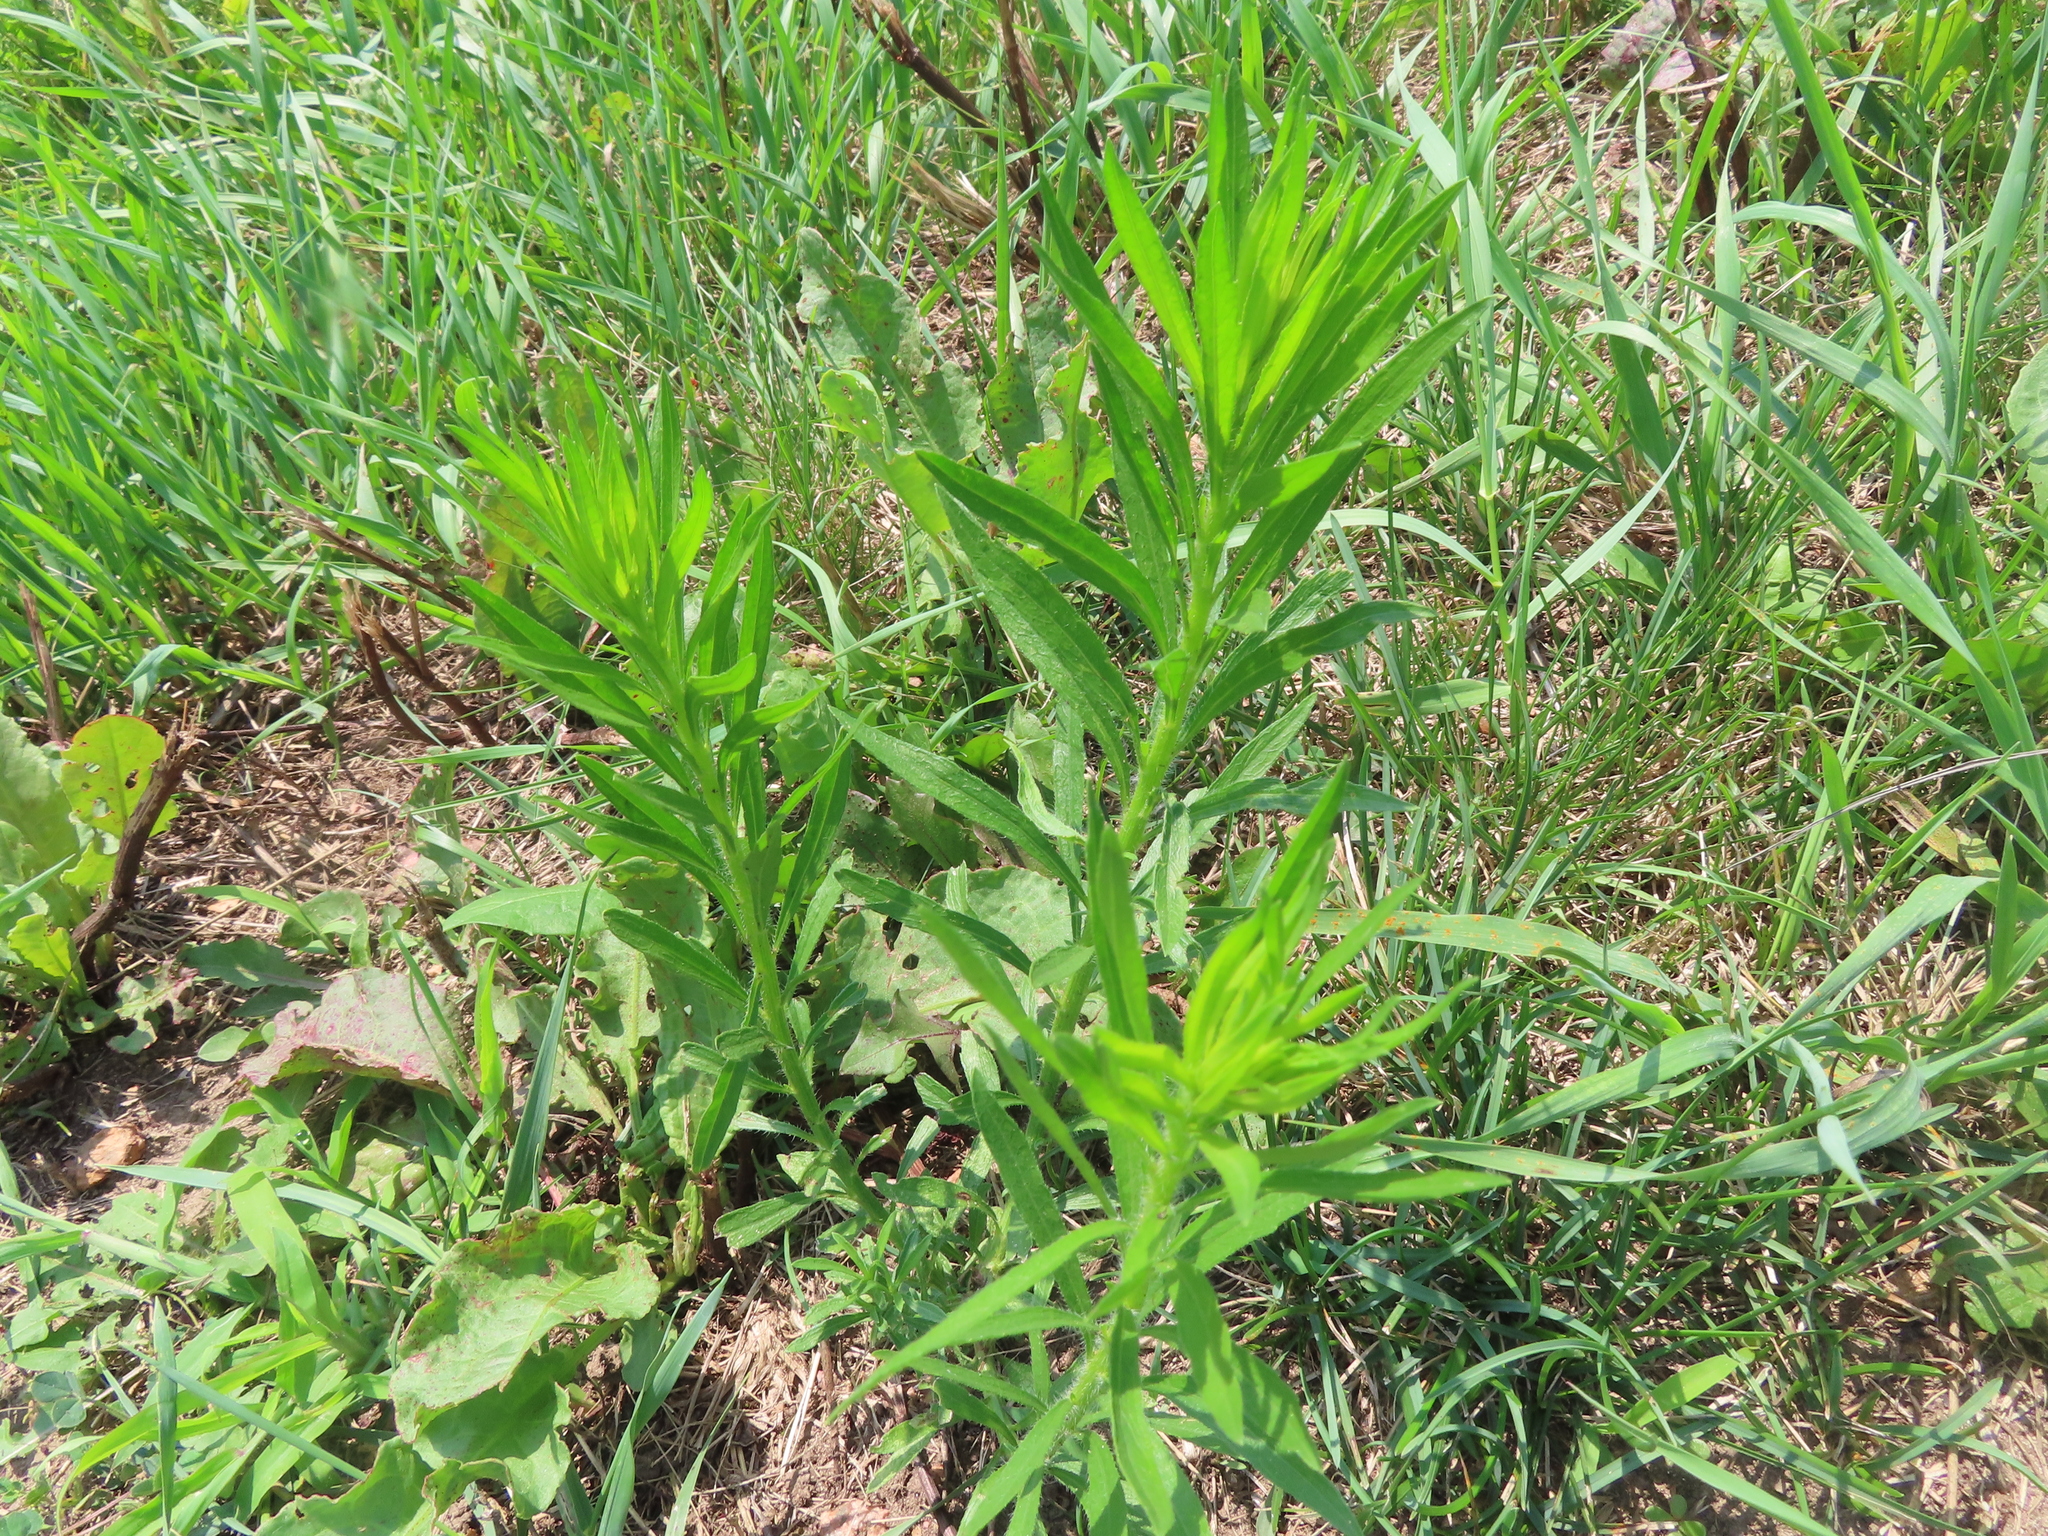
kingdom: Plantae
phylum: Tracheophyta
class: Magnoliopsida
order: Asterales
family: Asteraceae
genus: Erigeron
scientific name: Erigeron canadensis
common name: Canadian fleabane
